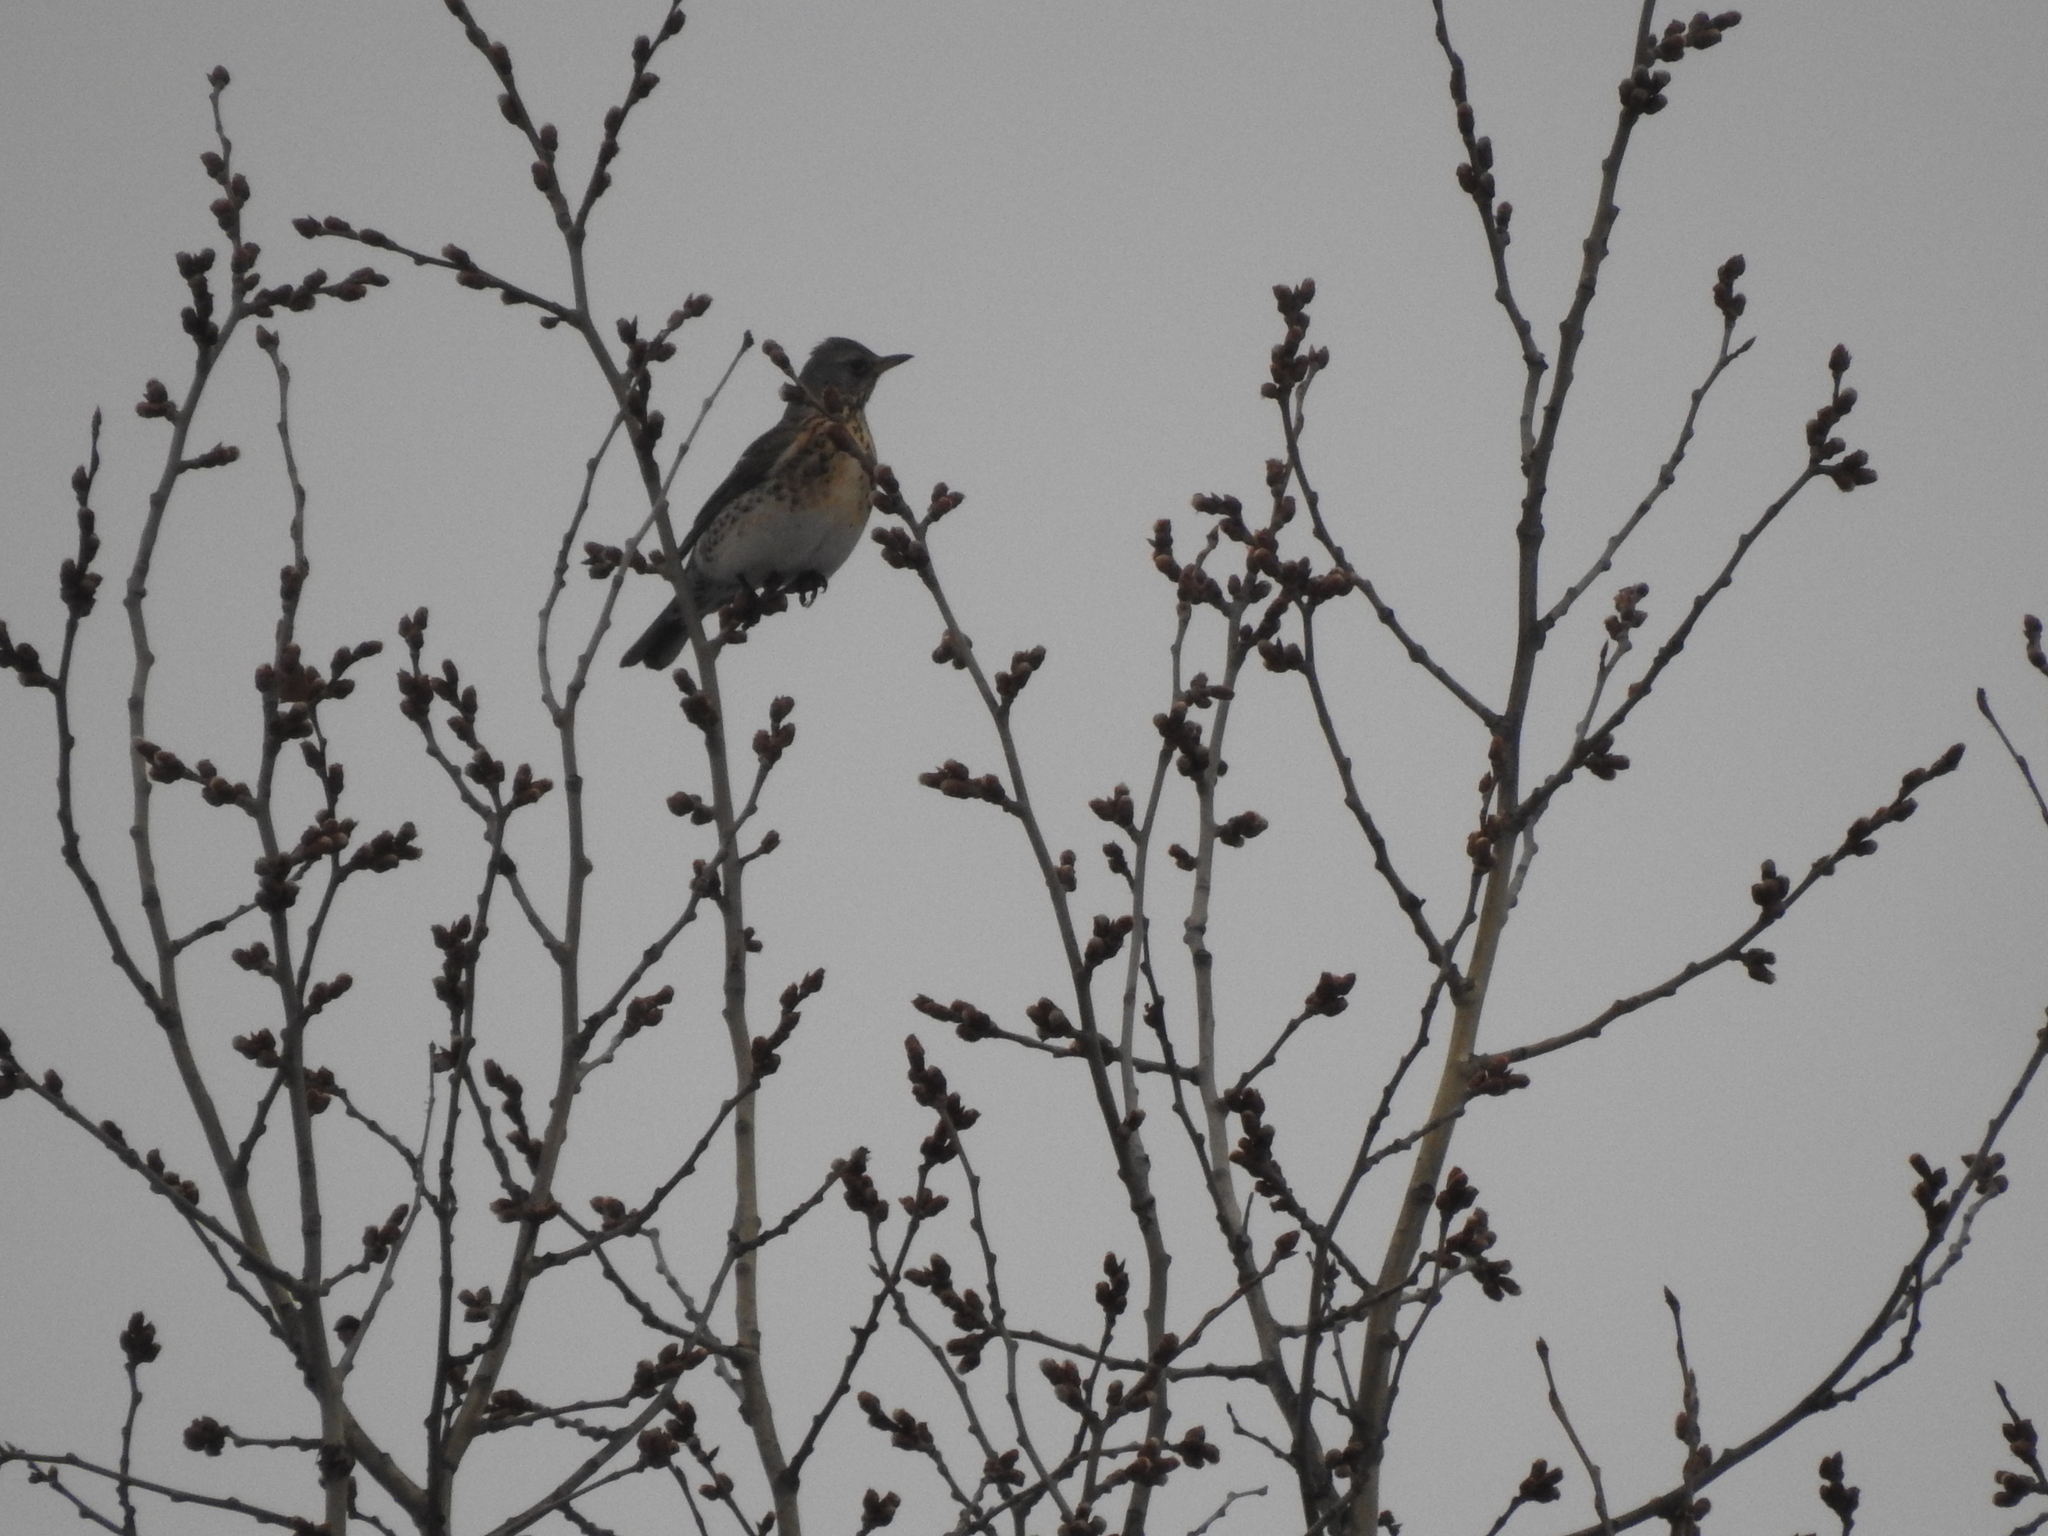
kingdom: Animalia
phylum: Chordata
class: Aves
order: Passeriformes
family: Turdidae
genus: Turdus
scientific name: Turdus pilaris
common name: Fieldfare
